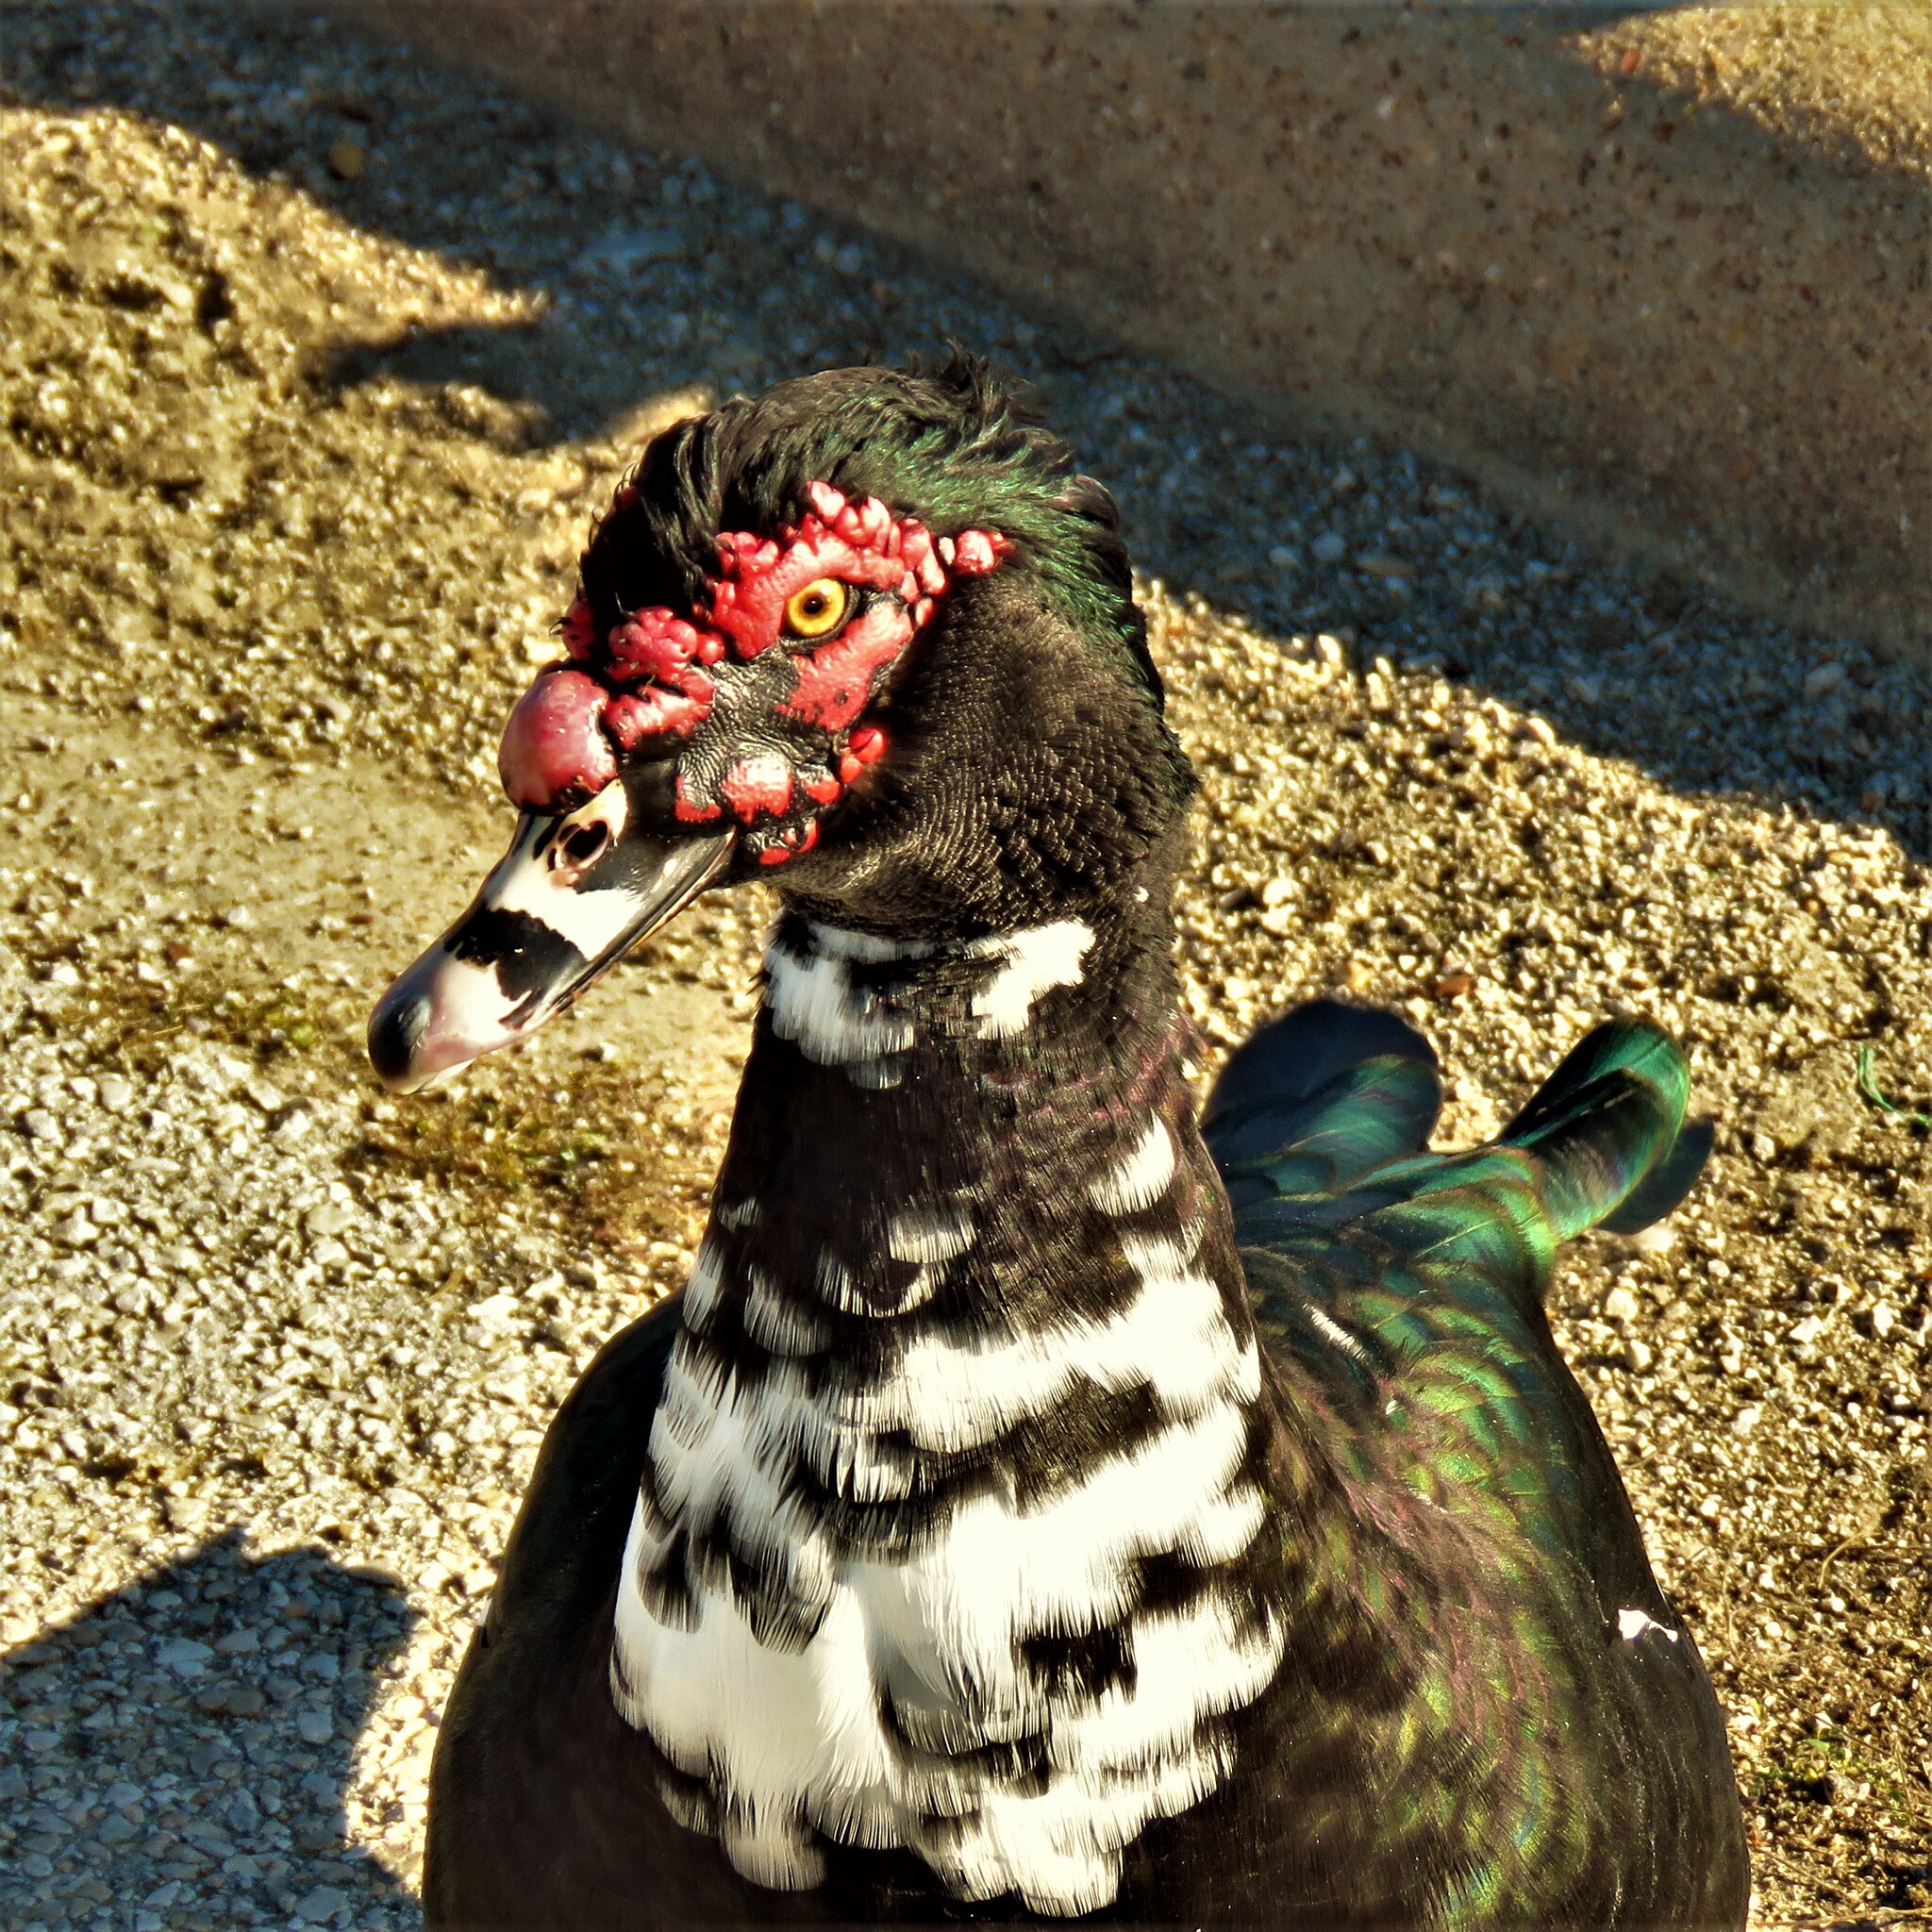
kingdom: Animalia
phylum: Chordata
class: Aves
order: Anseriformes
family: Anatidae
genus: Cairina
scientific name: Cairina moschata
